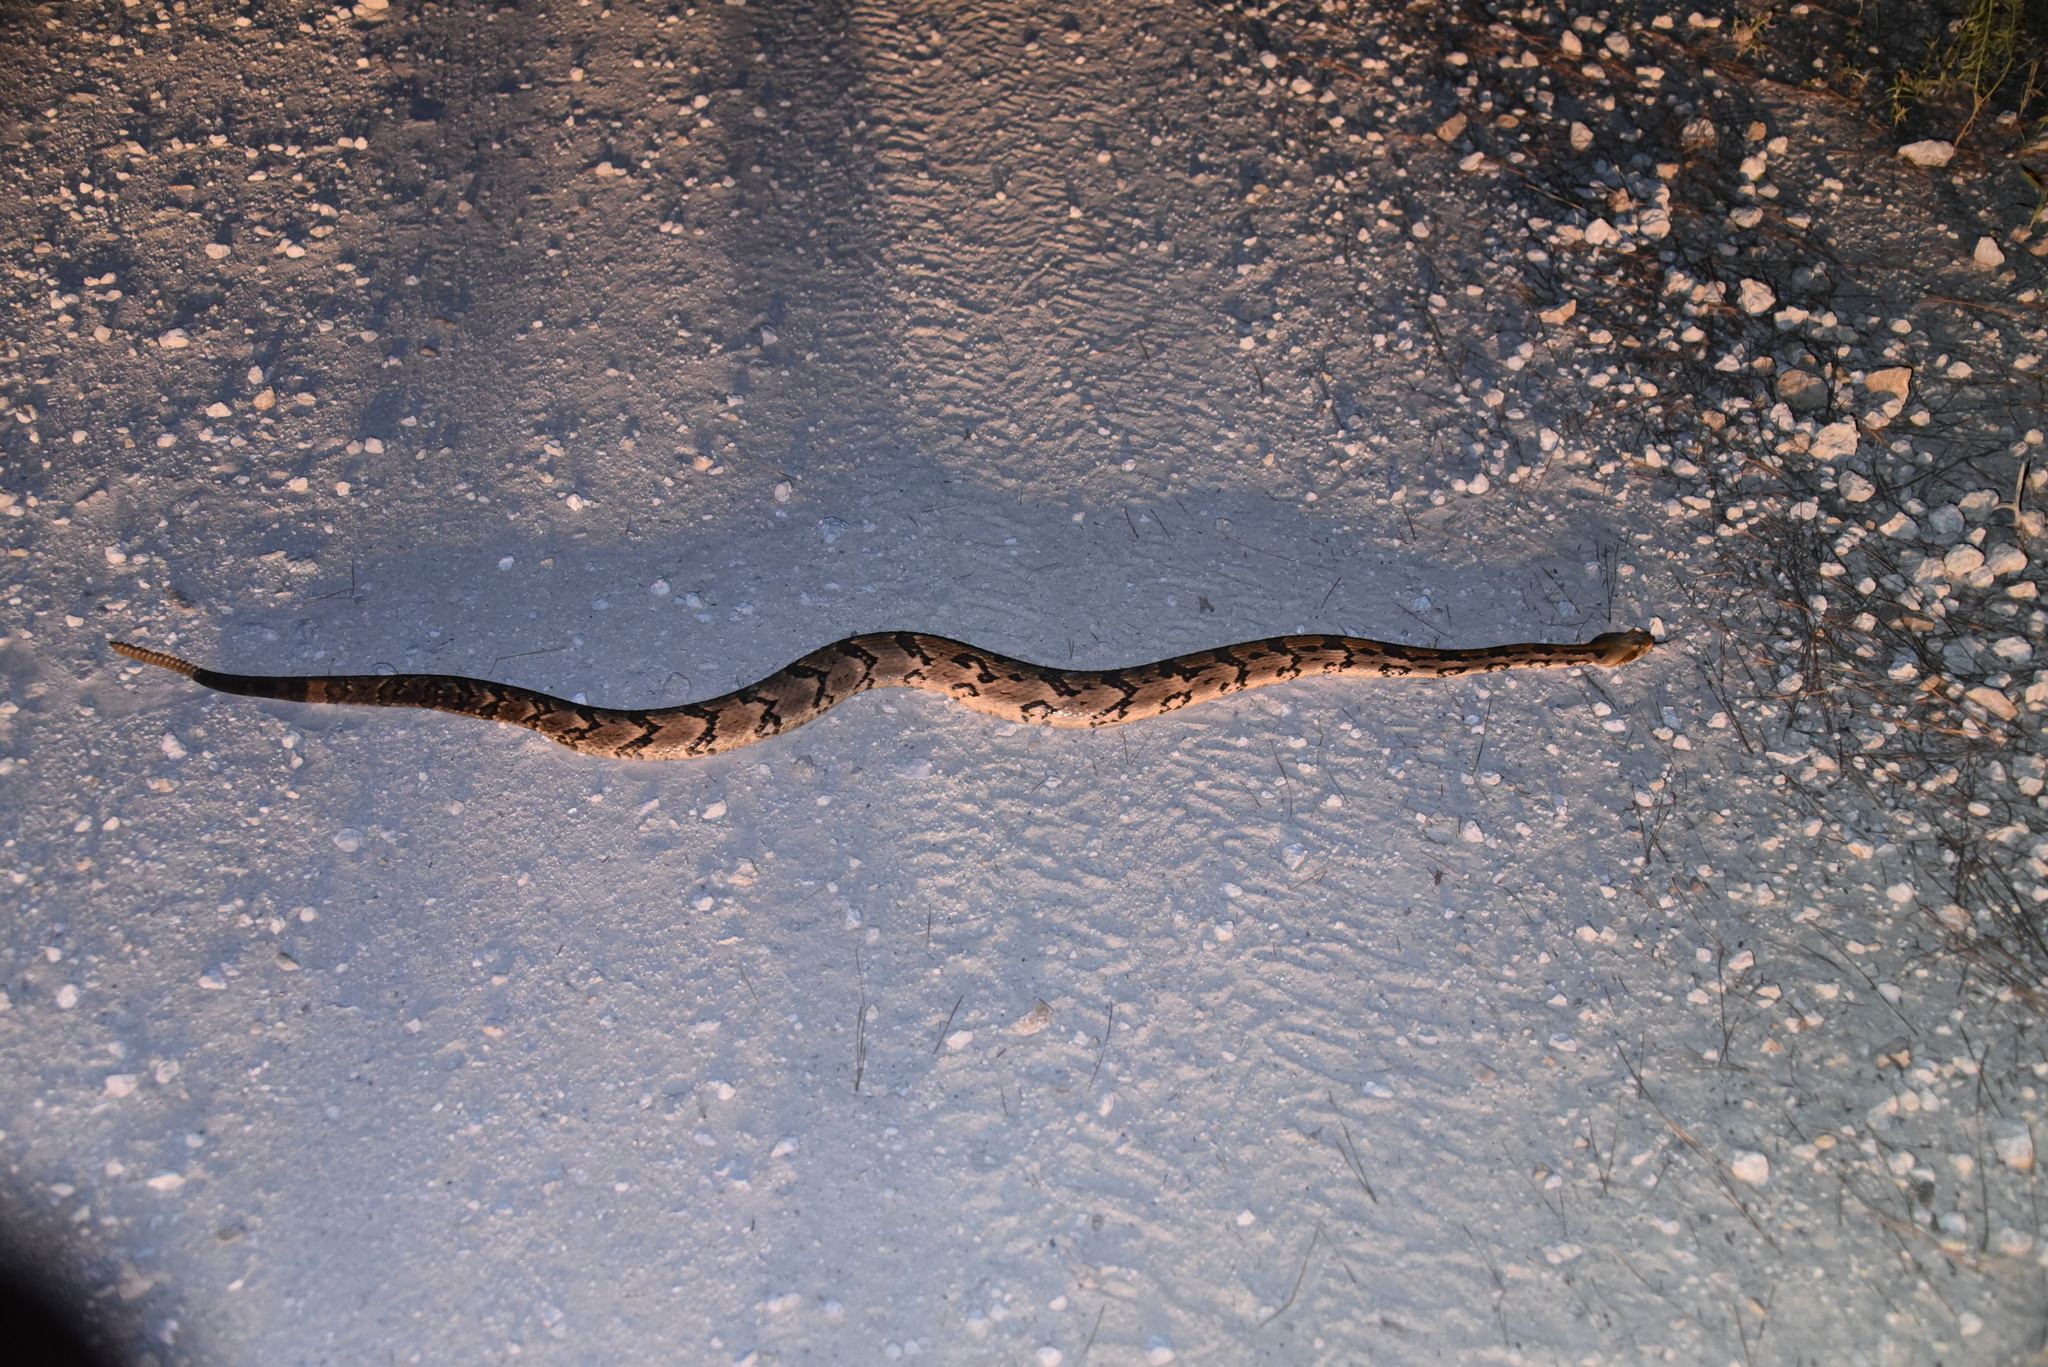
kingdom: Animalia
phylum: Chordata
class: Squamata
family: Viperidae
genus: Crotalus
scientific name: Crotalus horridus
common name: Timber rattlesnake
